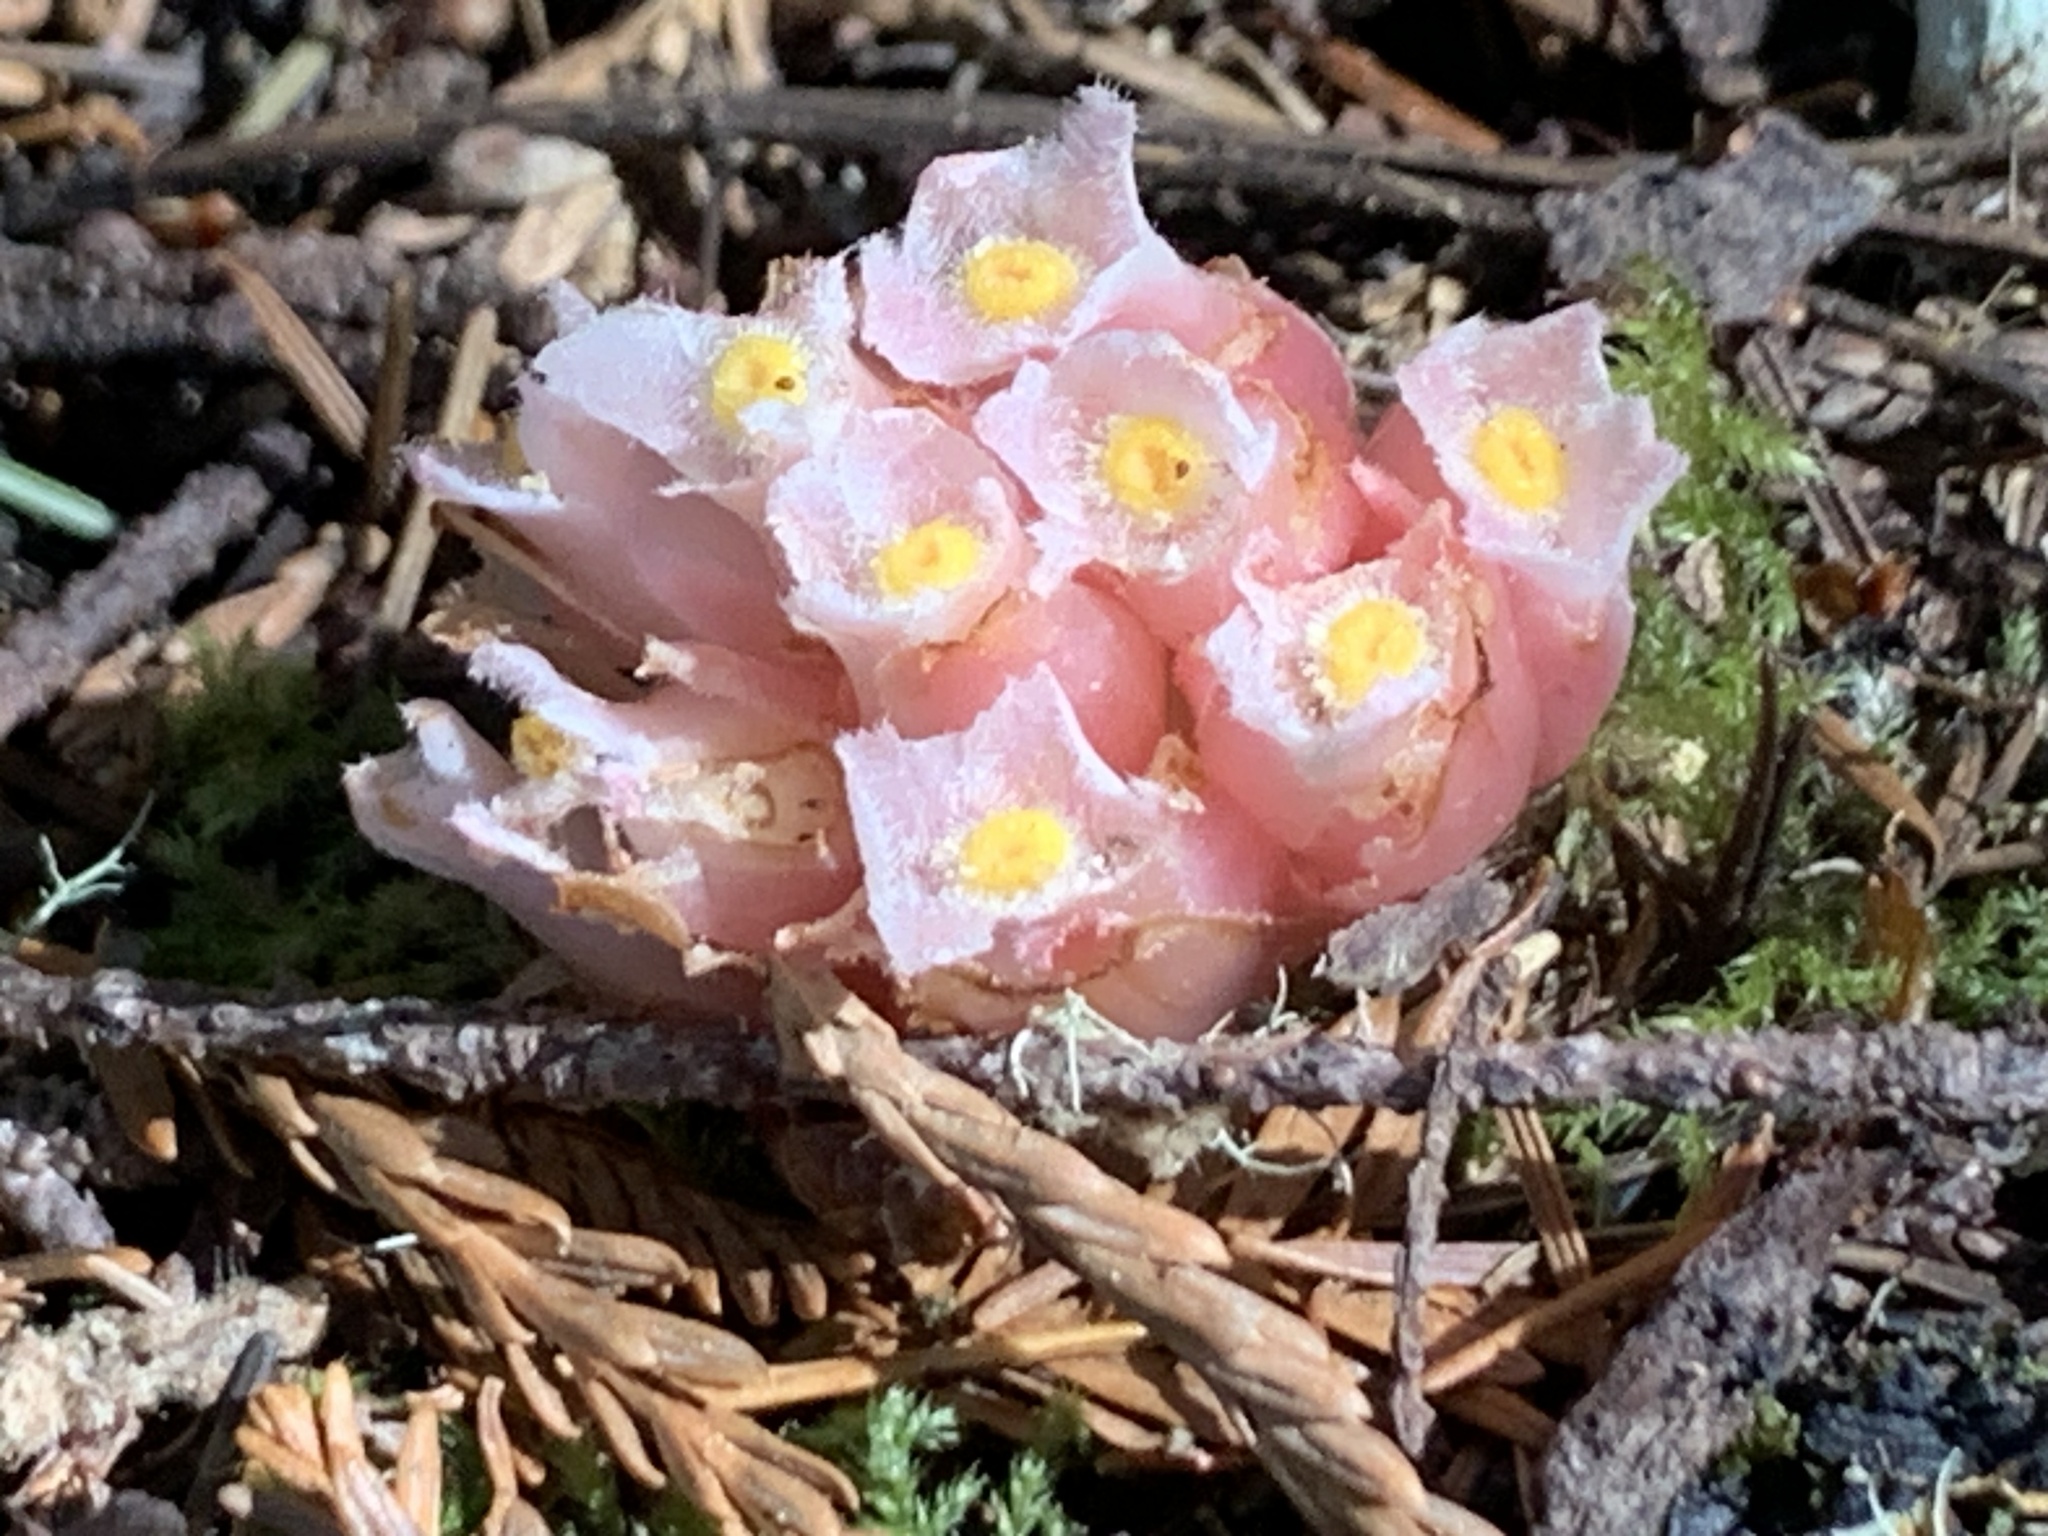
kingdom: Plantae
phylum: Tracheophyta
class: Magnoliopsida
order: Ericales
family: Ericaceae
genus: Hemitomes
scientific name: Hemitomes congestum
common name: Cone plant
